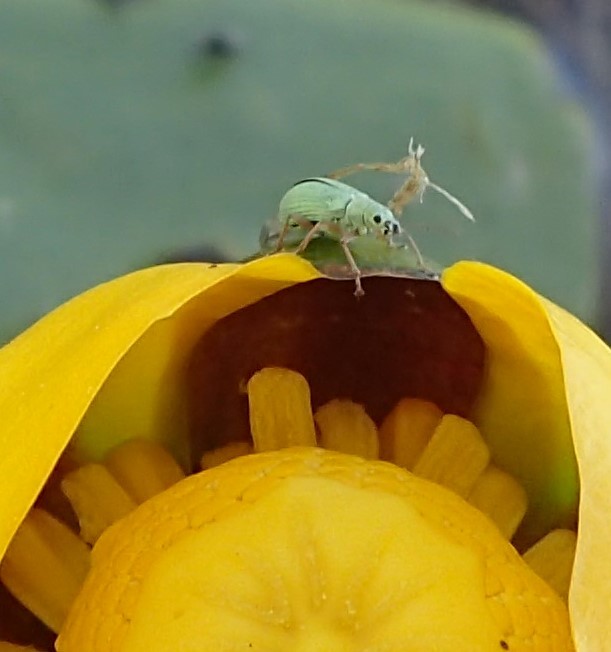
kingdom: Animalia
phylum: Arthropoda
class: Insecta
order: Coleoptera
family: Curculionidae
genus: Polydrusus
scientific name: Polydrusus impressifrons
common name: Weevil
